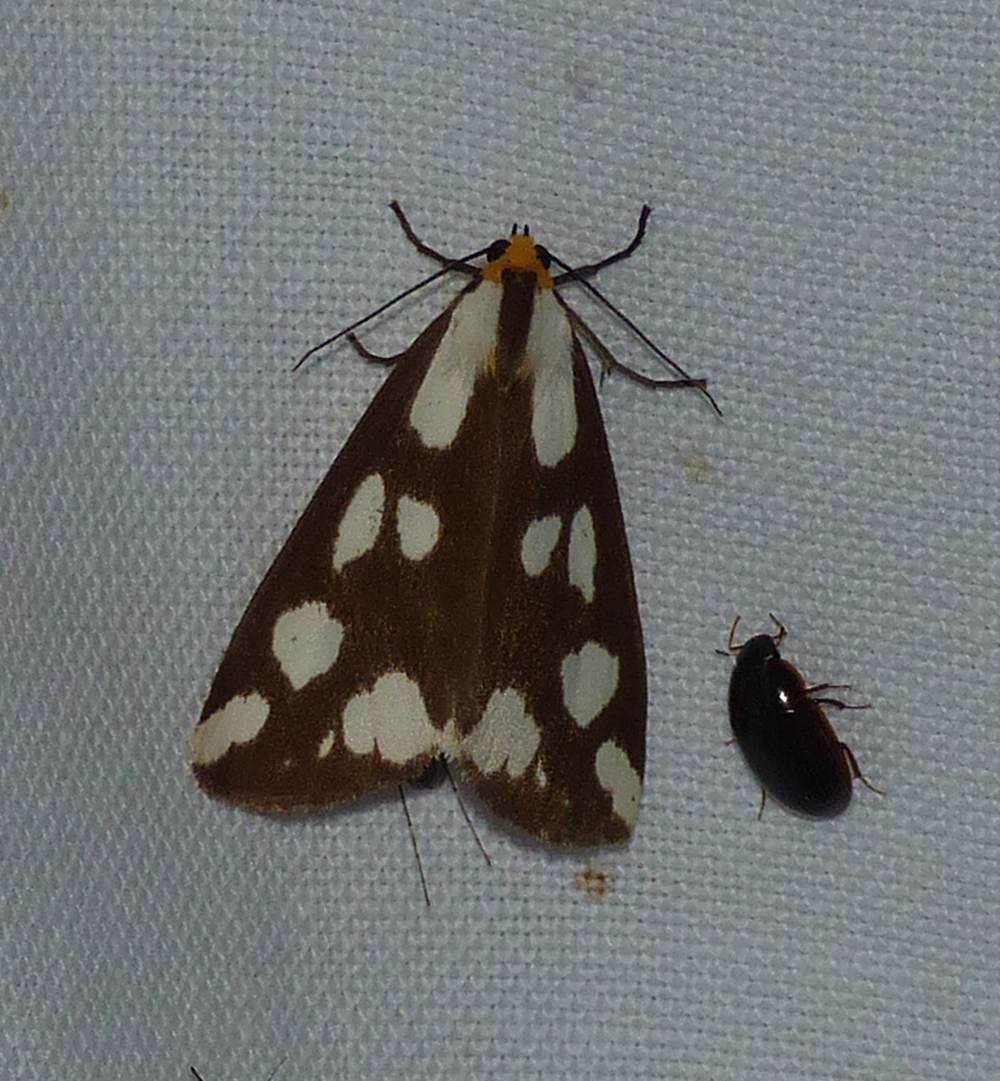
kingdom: Animalia
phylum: Arthropoda
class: Insecta
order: Lepidoptera
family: Erebidae
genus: Haploa
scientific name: Haploa confusa
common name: Confused haploa moth
